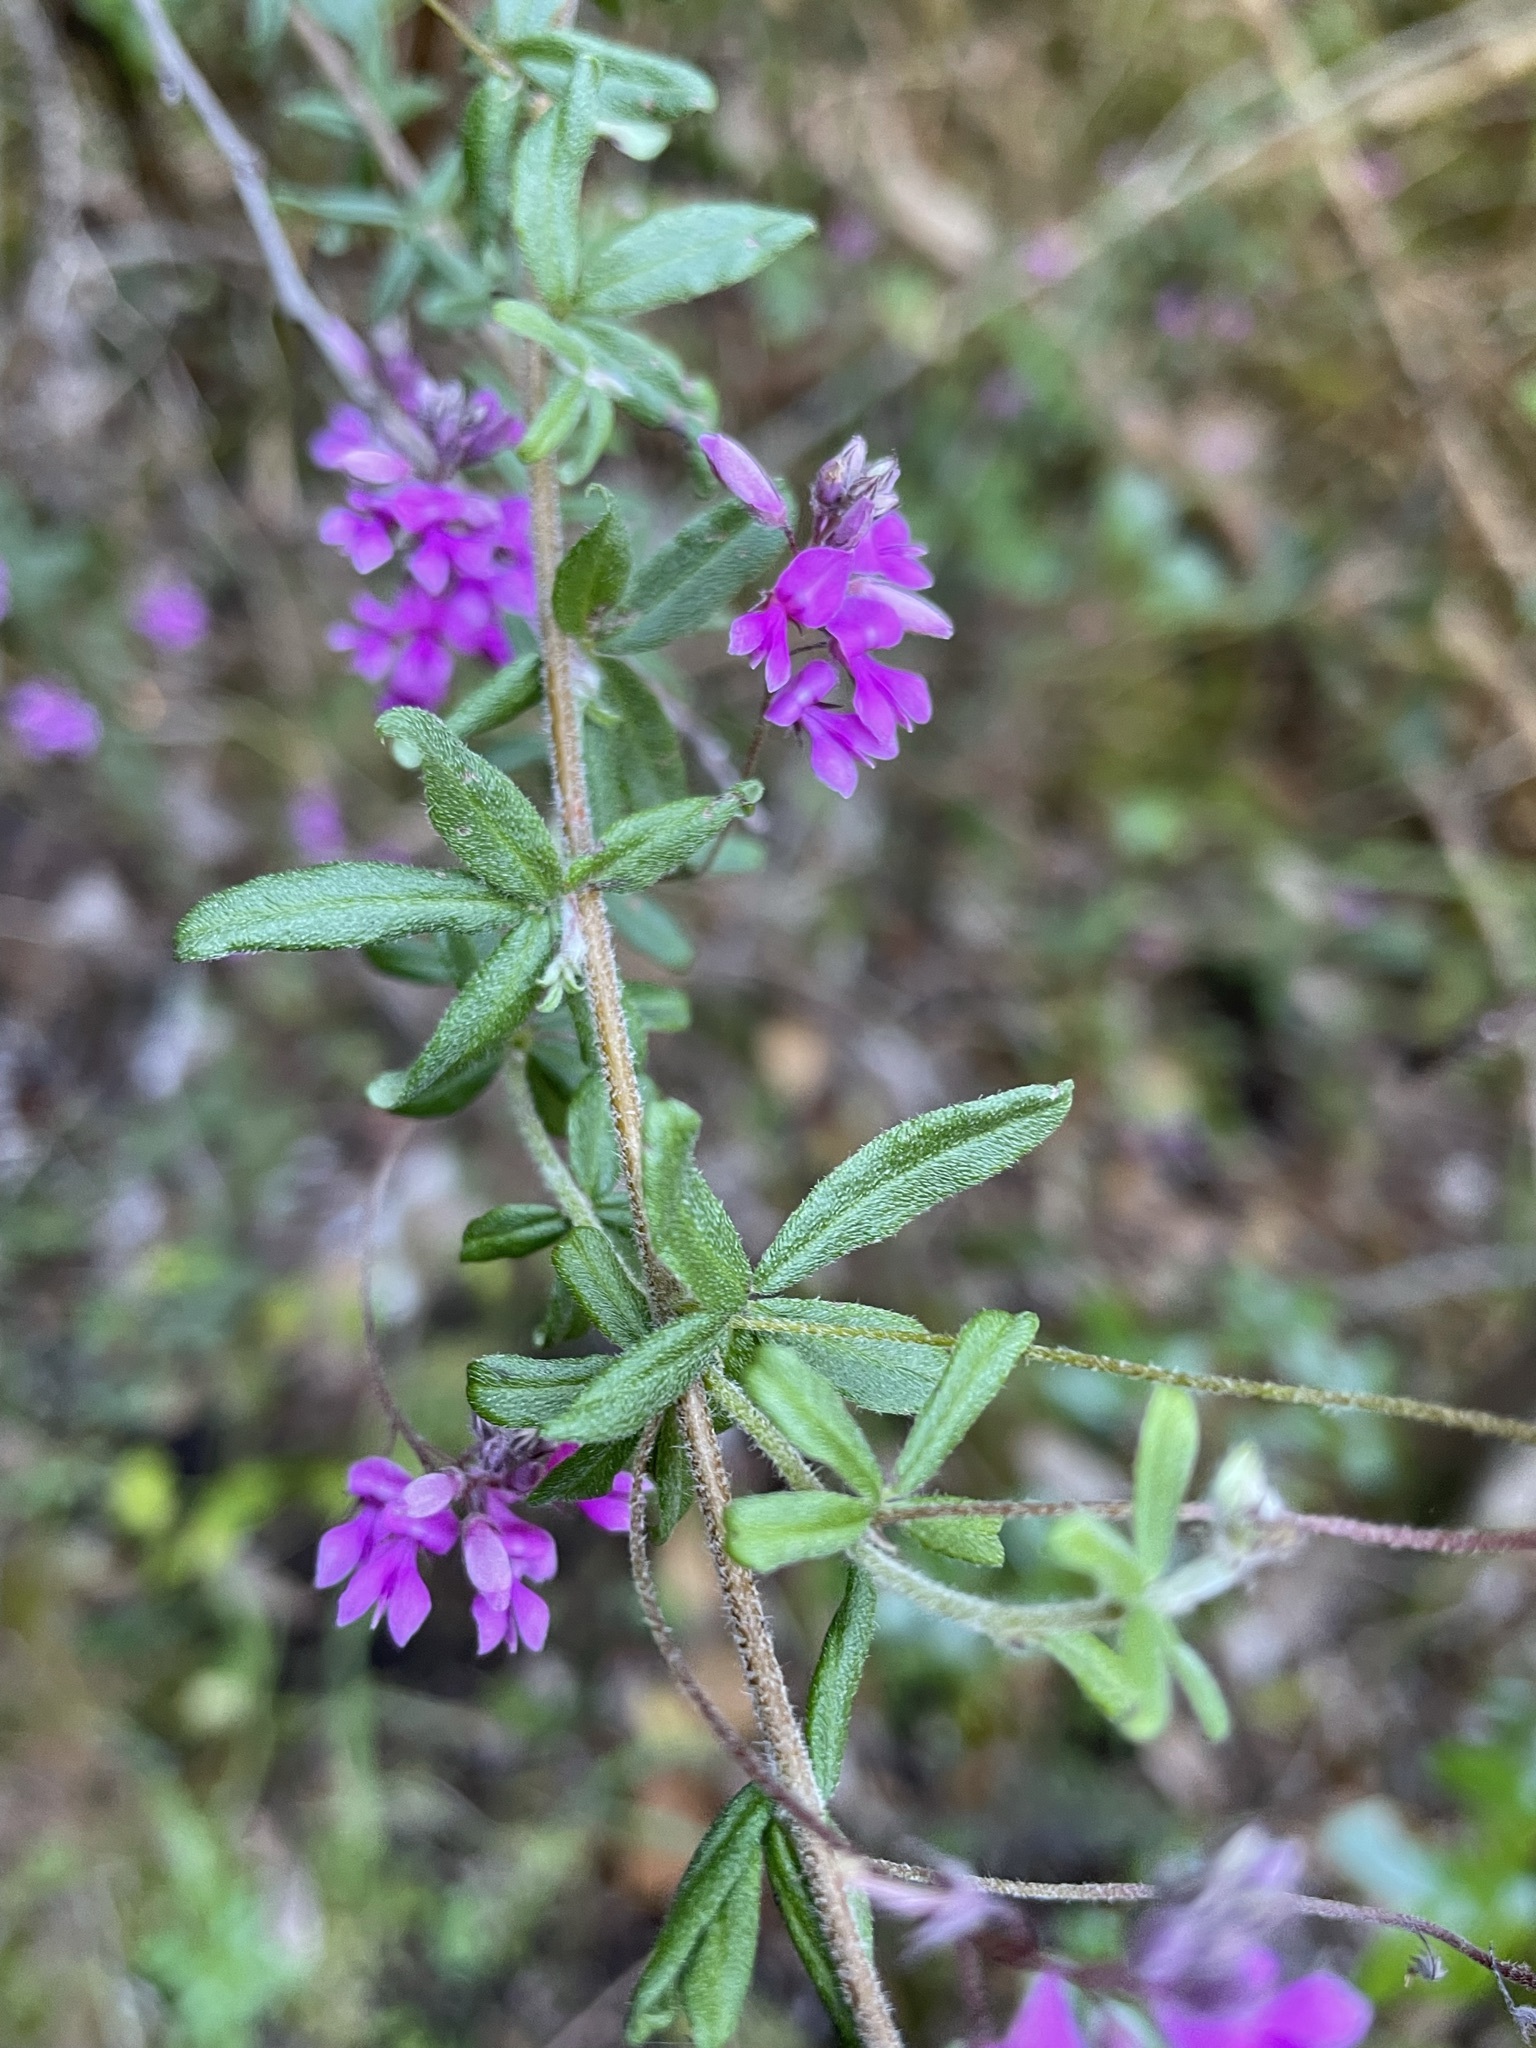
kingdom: Plantae
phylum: Tracheophyta
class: Magnoliopsida
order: Fabales
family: Fabaceae
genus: Indigofera
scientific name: Indigofera filiformis
